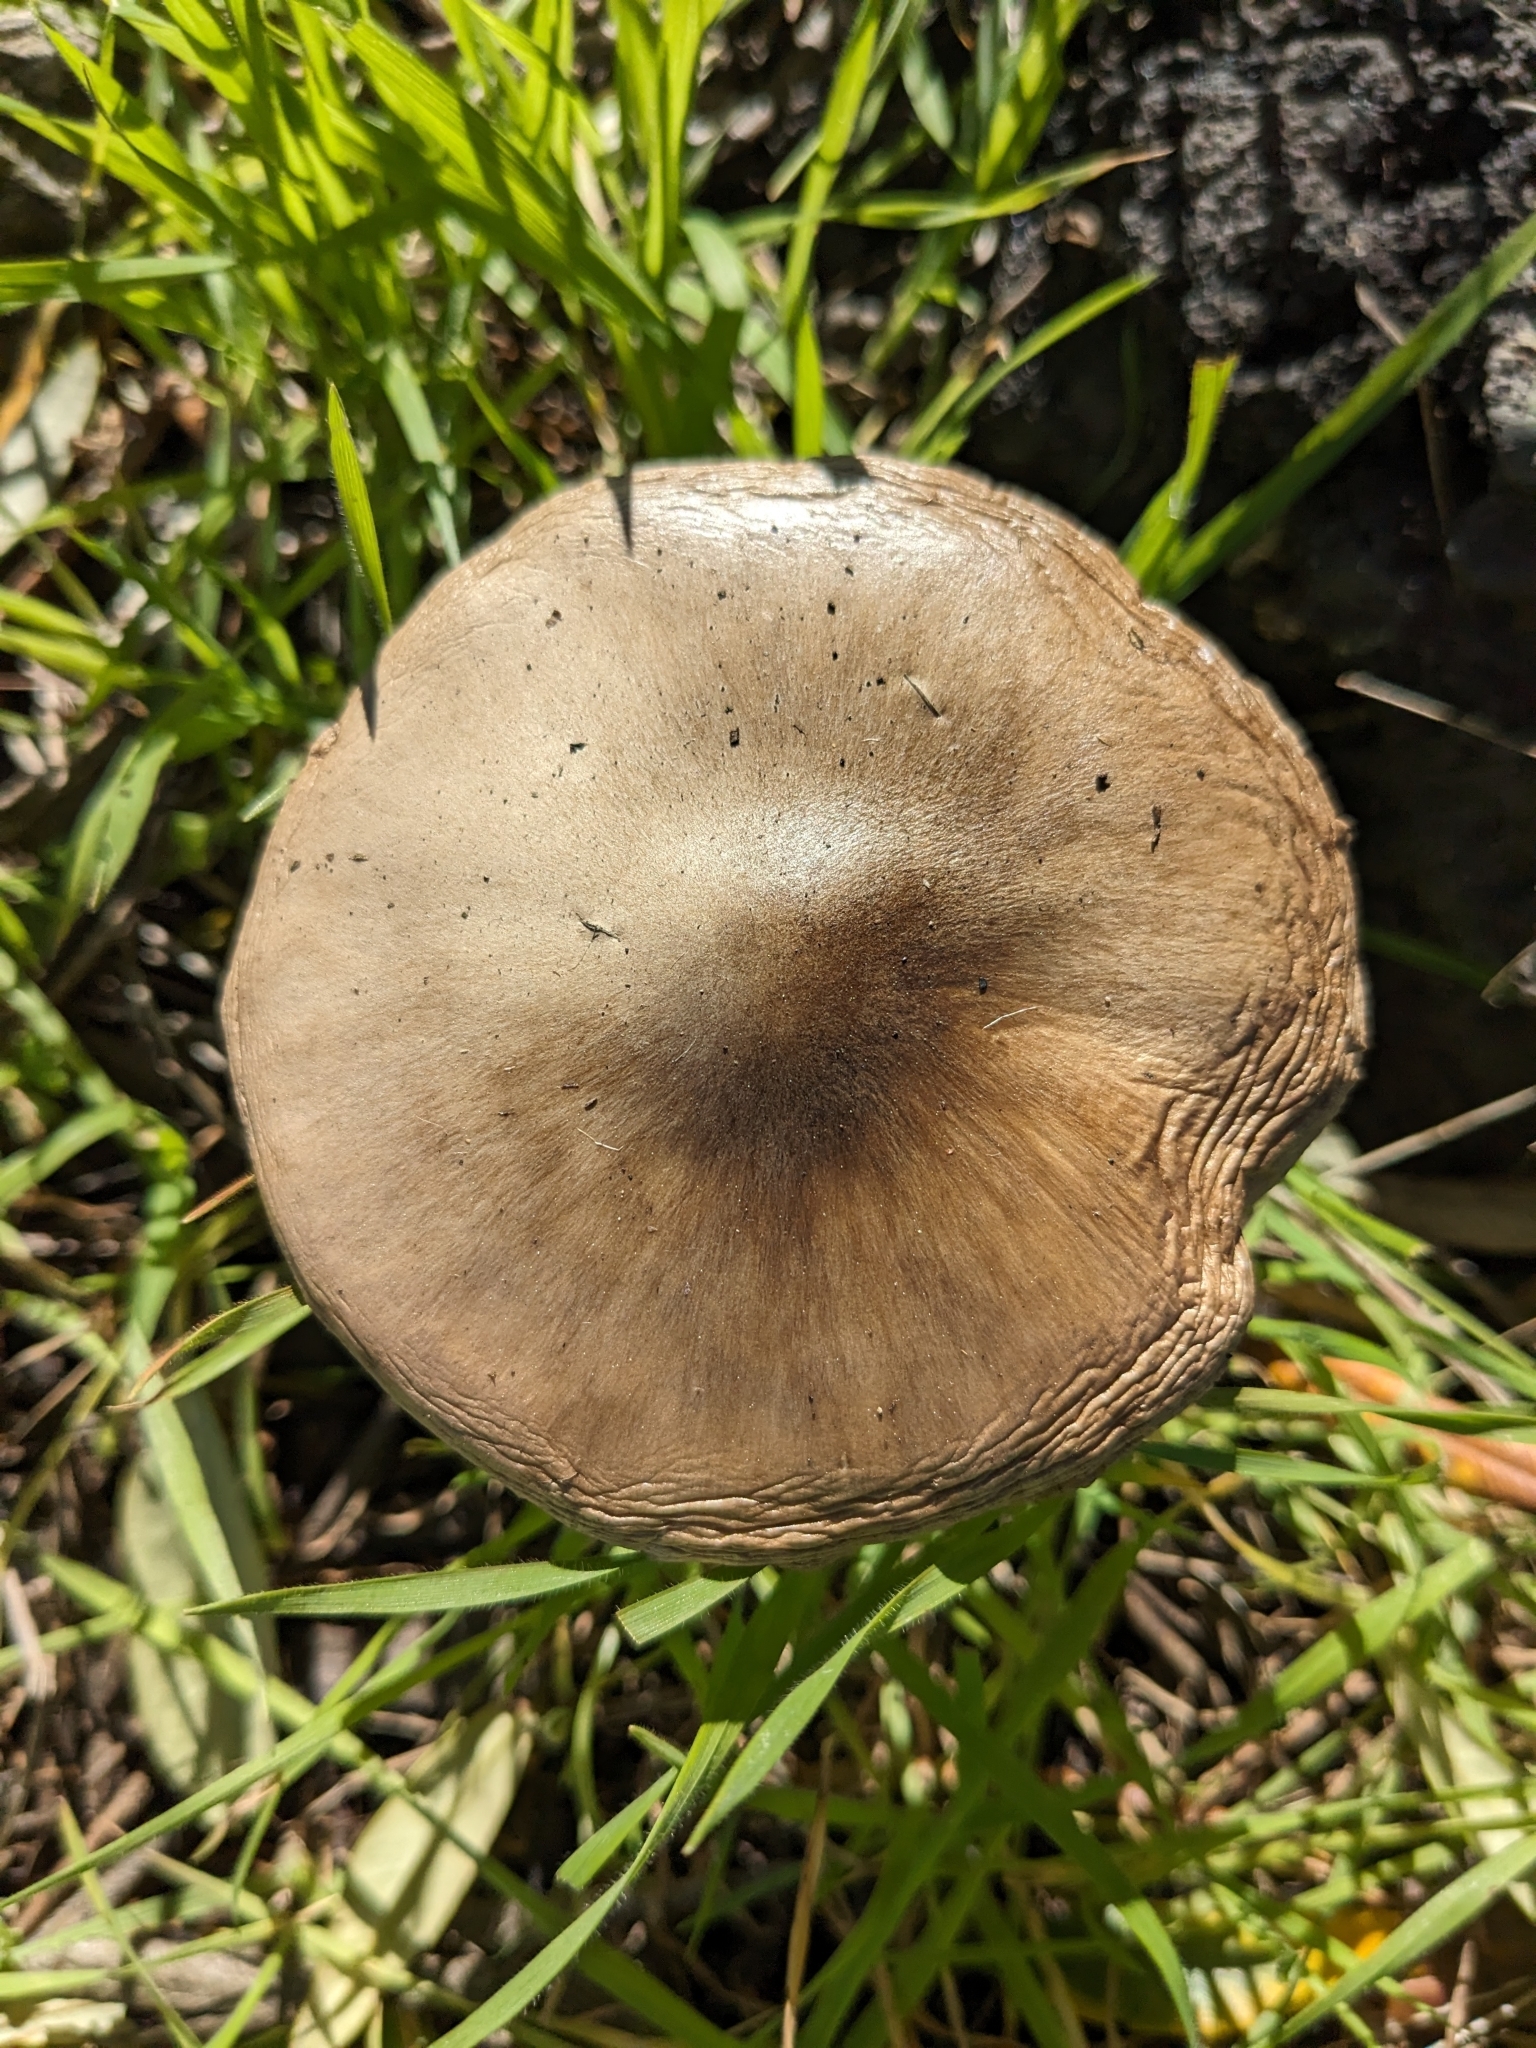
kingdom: Fungi
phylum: Basidiomycota
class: Agaricomycetes
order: Agaricales
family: Pluteaceae
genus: Volvopluteus
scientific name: Volvopluteus gloiocephalus
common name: Stubble rosegill
